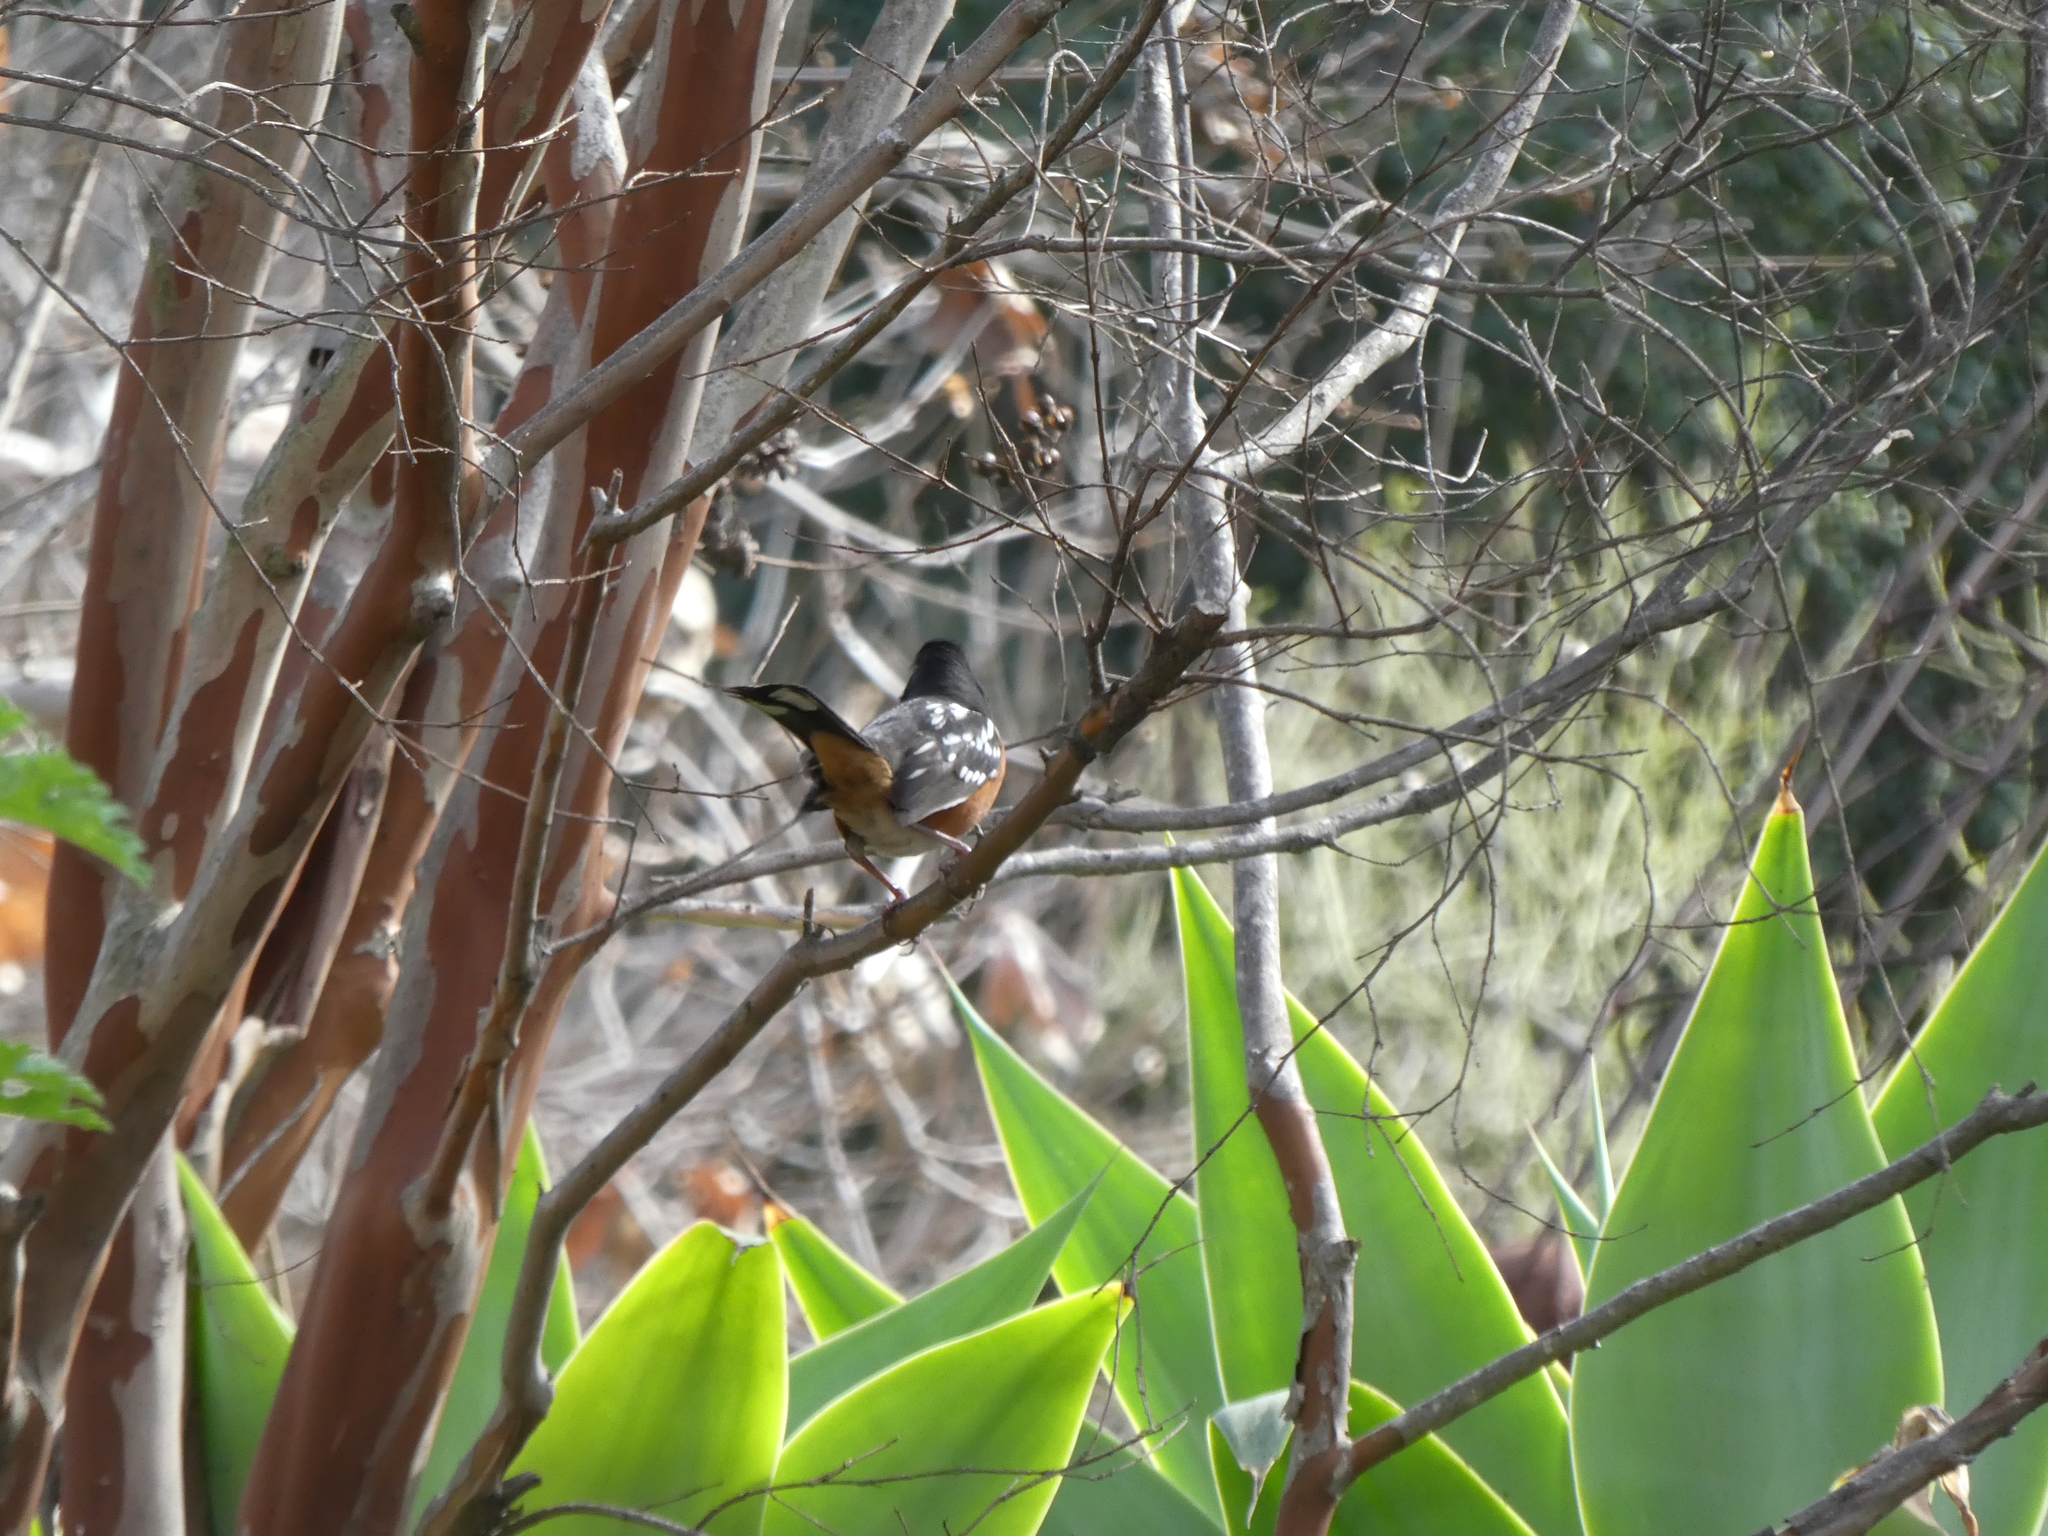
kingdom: Animalia
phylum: Chordata
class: Aves
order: Passeriformes
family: Passerellidae
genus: Pipilo
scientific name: Pipilo maculatus
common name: Spotted towhee
